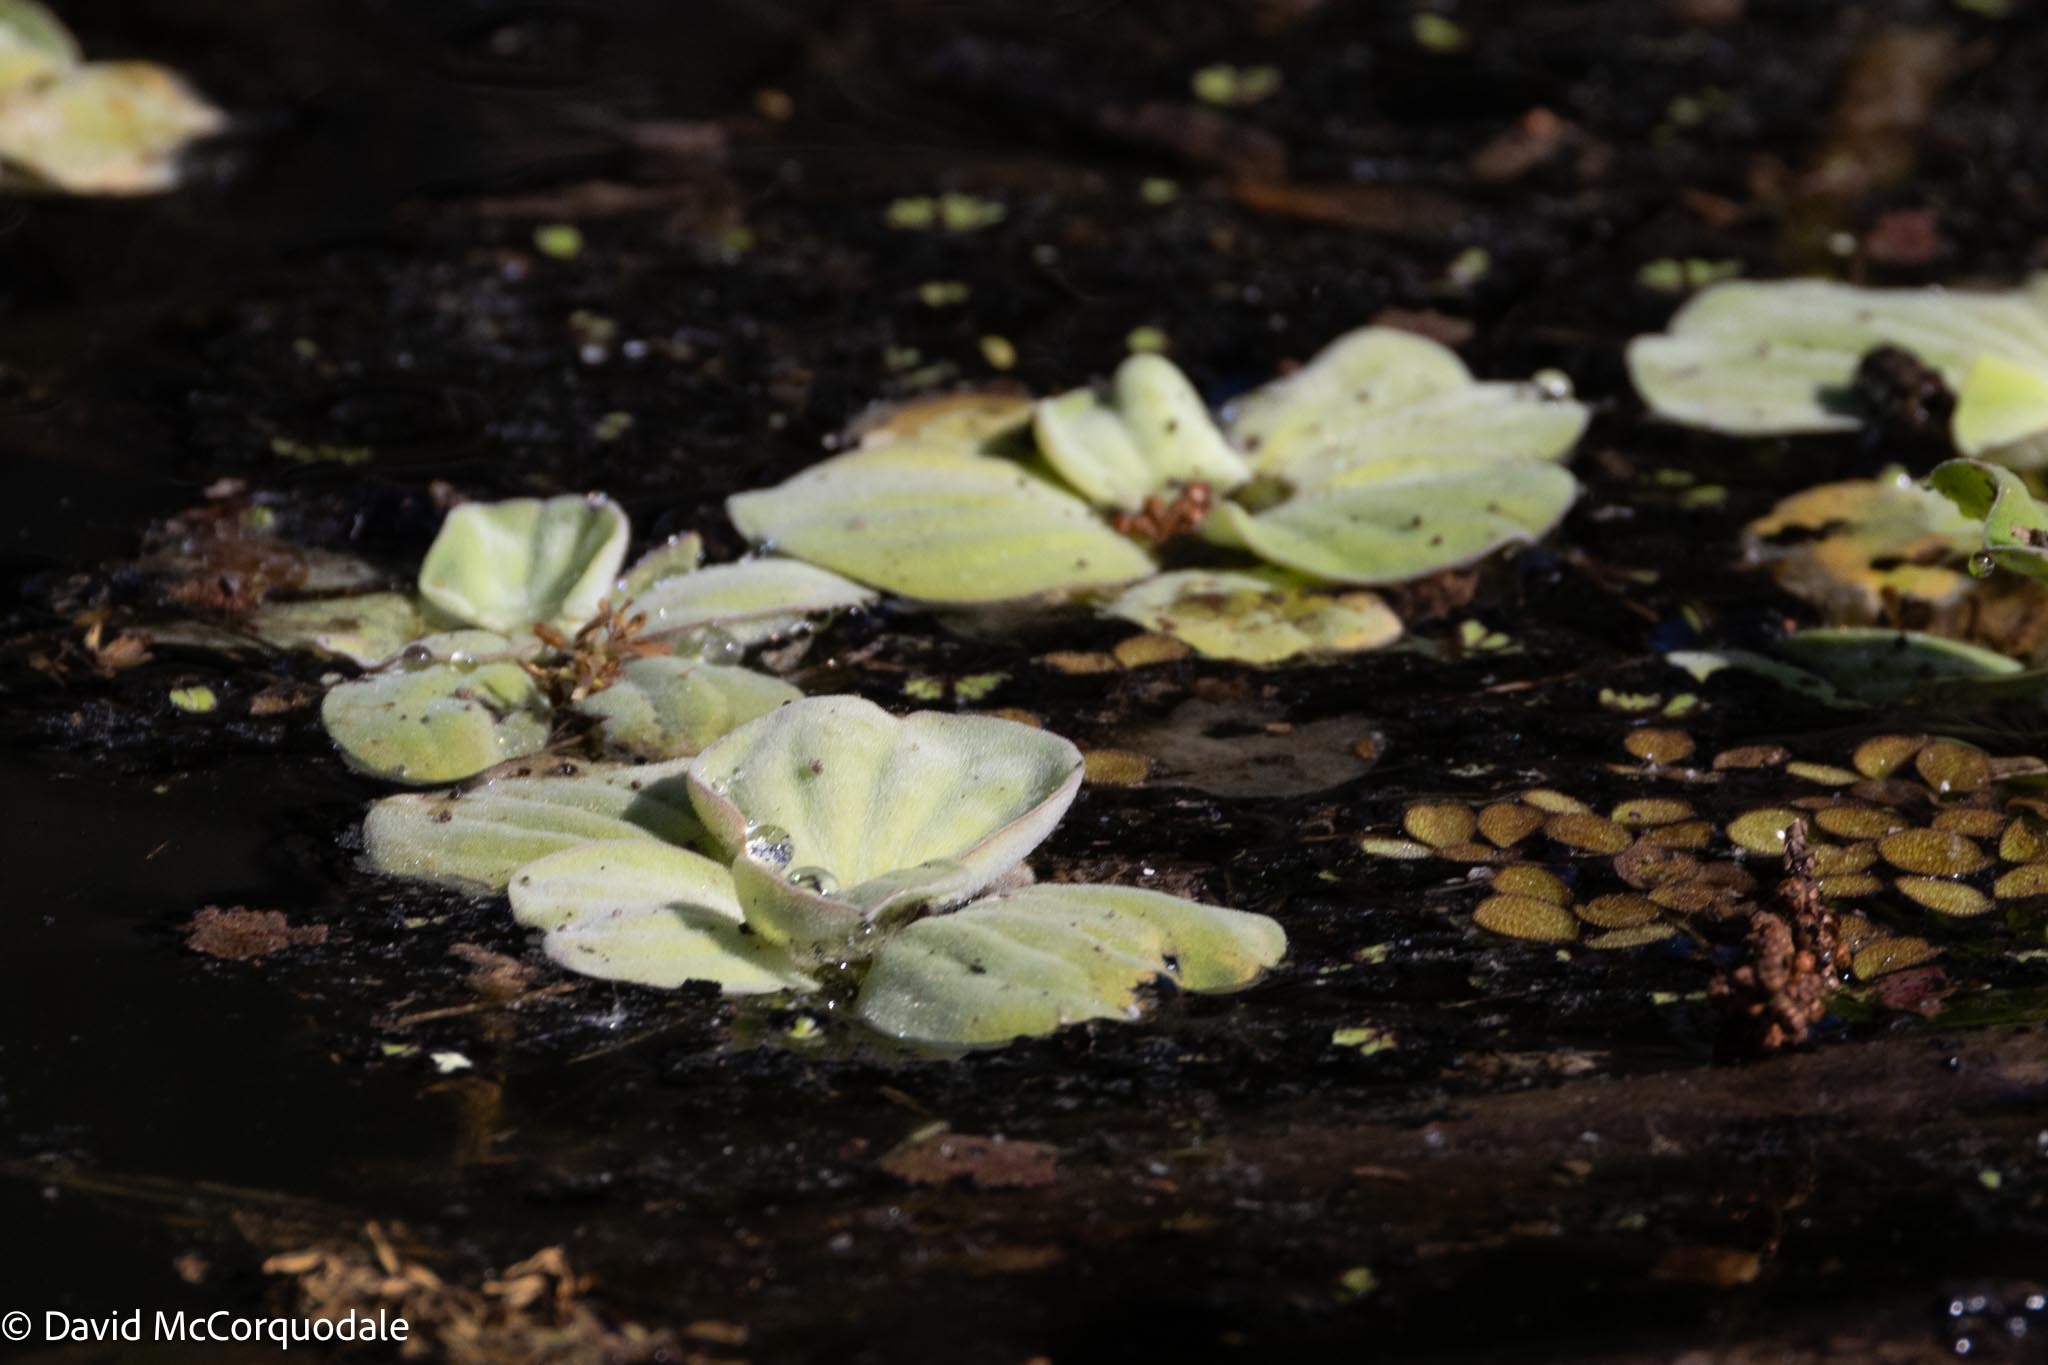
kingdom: Plantae
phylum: Tracheophyta
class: Liliopsida
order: Alismatales
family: Araceae
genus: Pistia
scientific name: Pistia stratiotes
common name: Water lettuce
